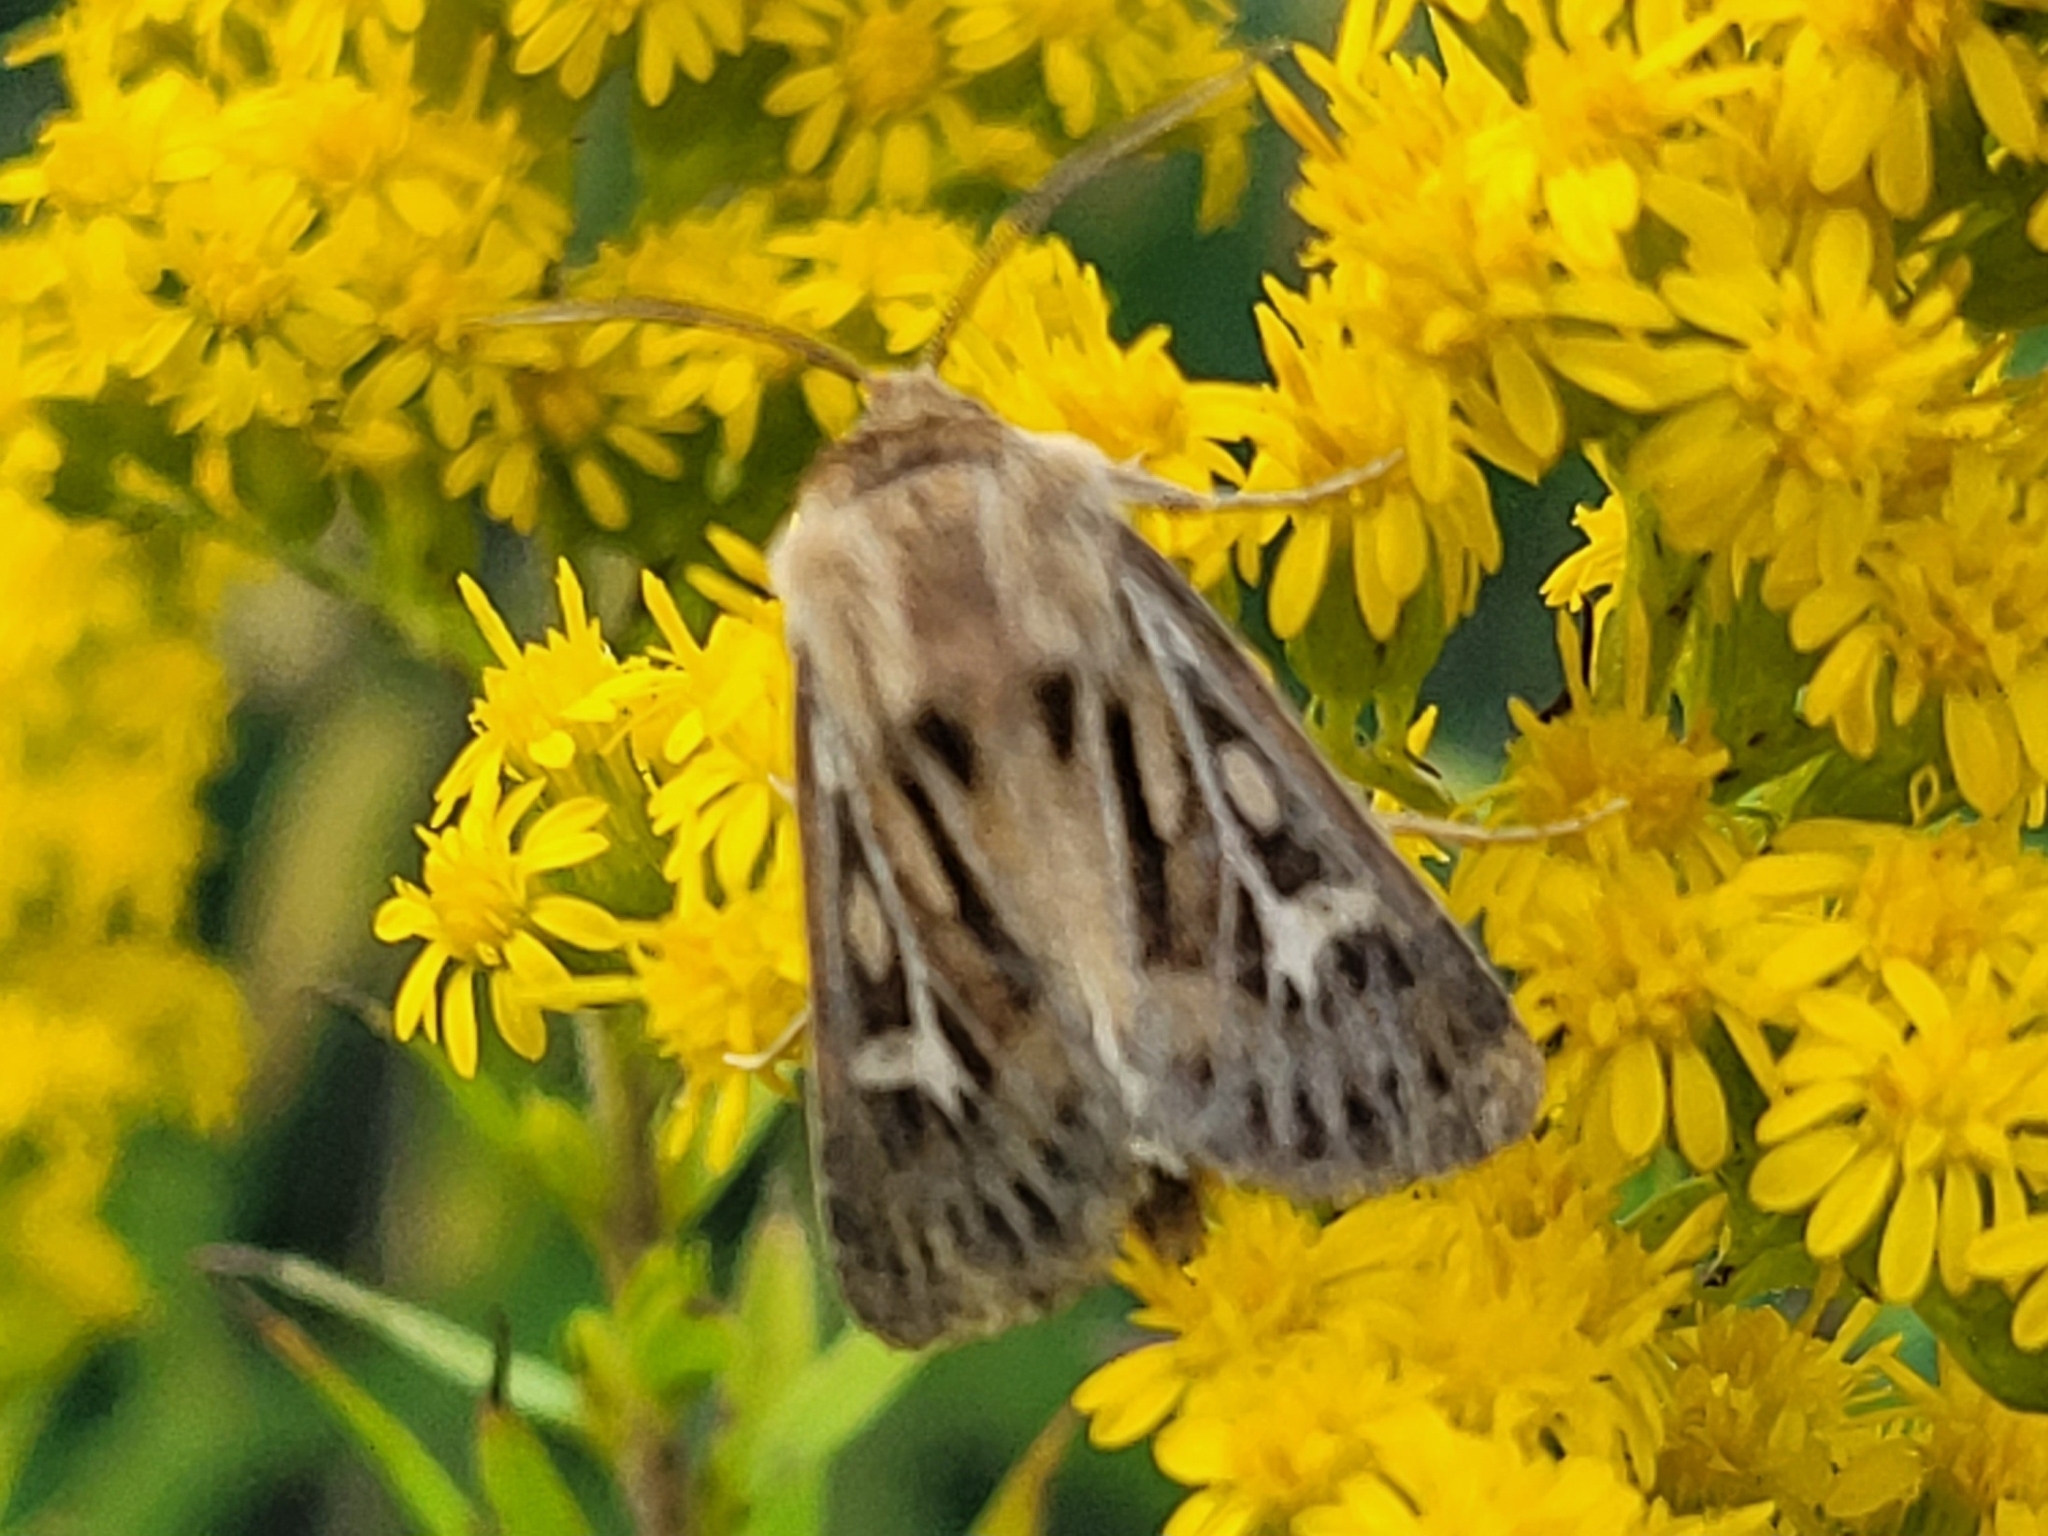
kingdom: Animalia
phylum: Arthropoda
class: Insecta
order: Lepidoptera
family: Noctuidae
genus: Cerapteryx
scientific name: Cerapteryx graminis
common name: Antler moth
